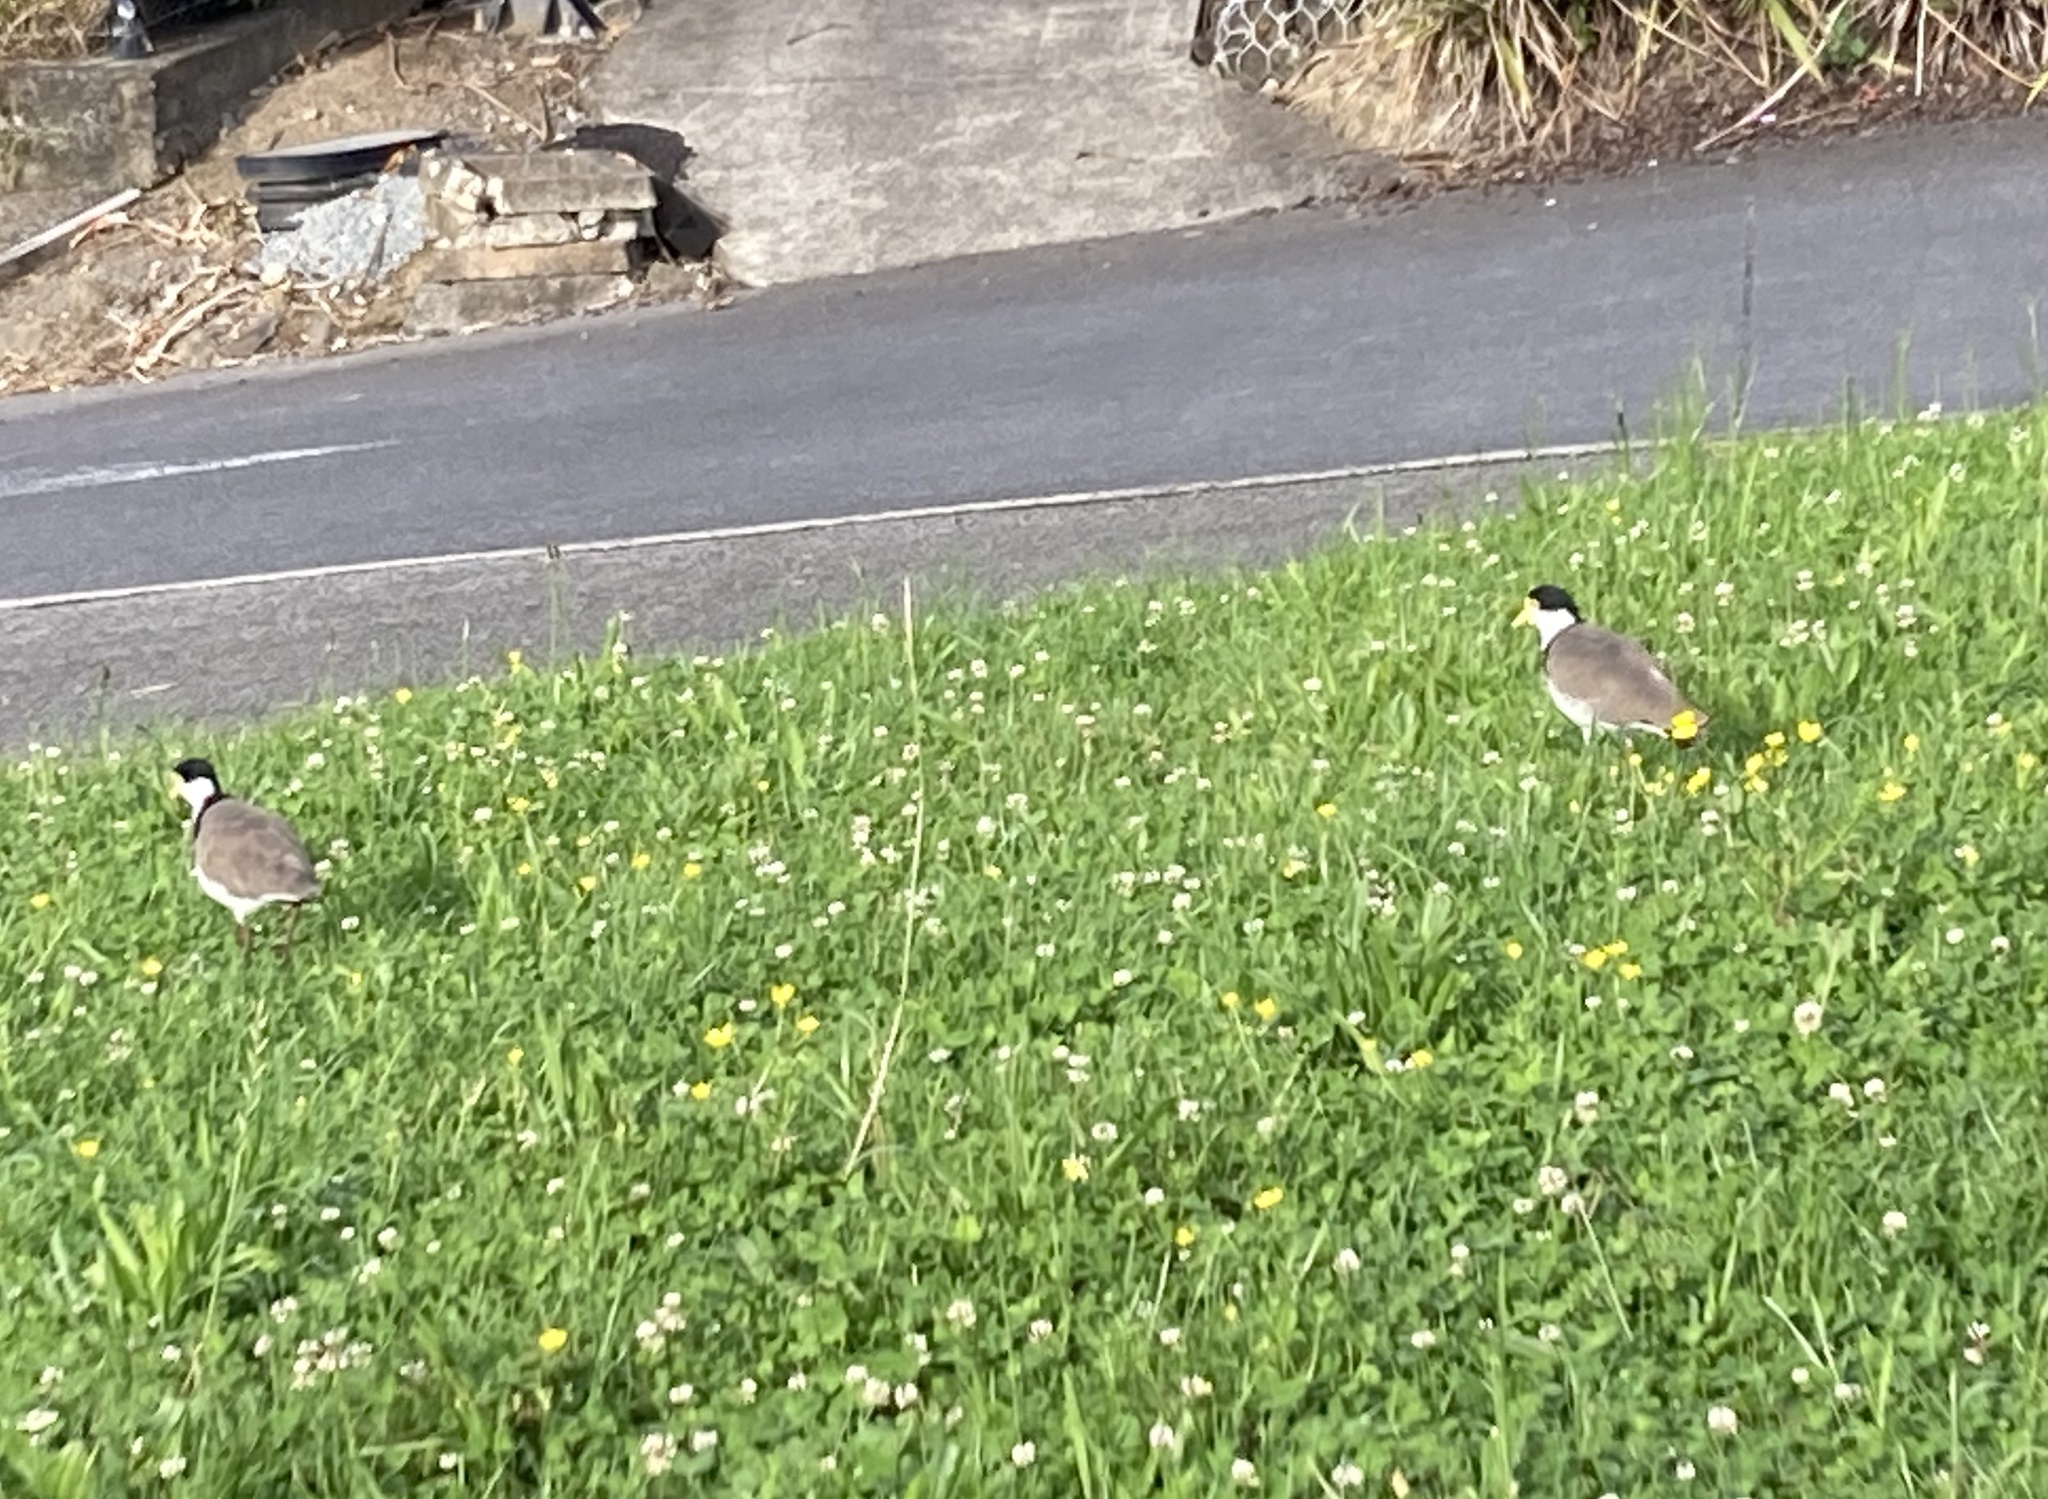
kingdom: Animalia
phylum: Chordata
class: Aves
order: Charadriiformes
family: Charadriidae
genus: Vanellus
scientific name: Vanellus miles
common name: Masked lapwing
